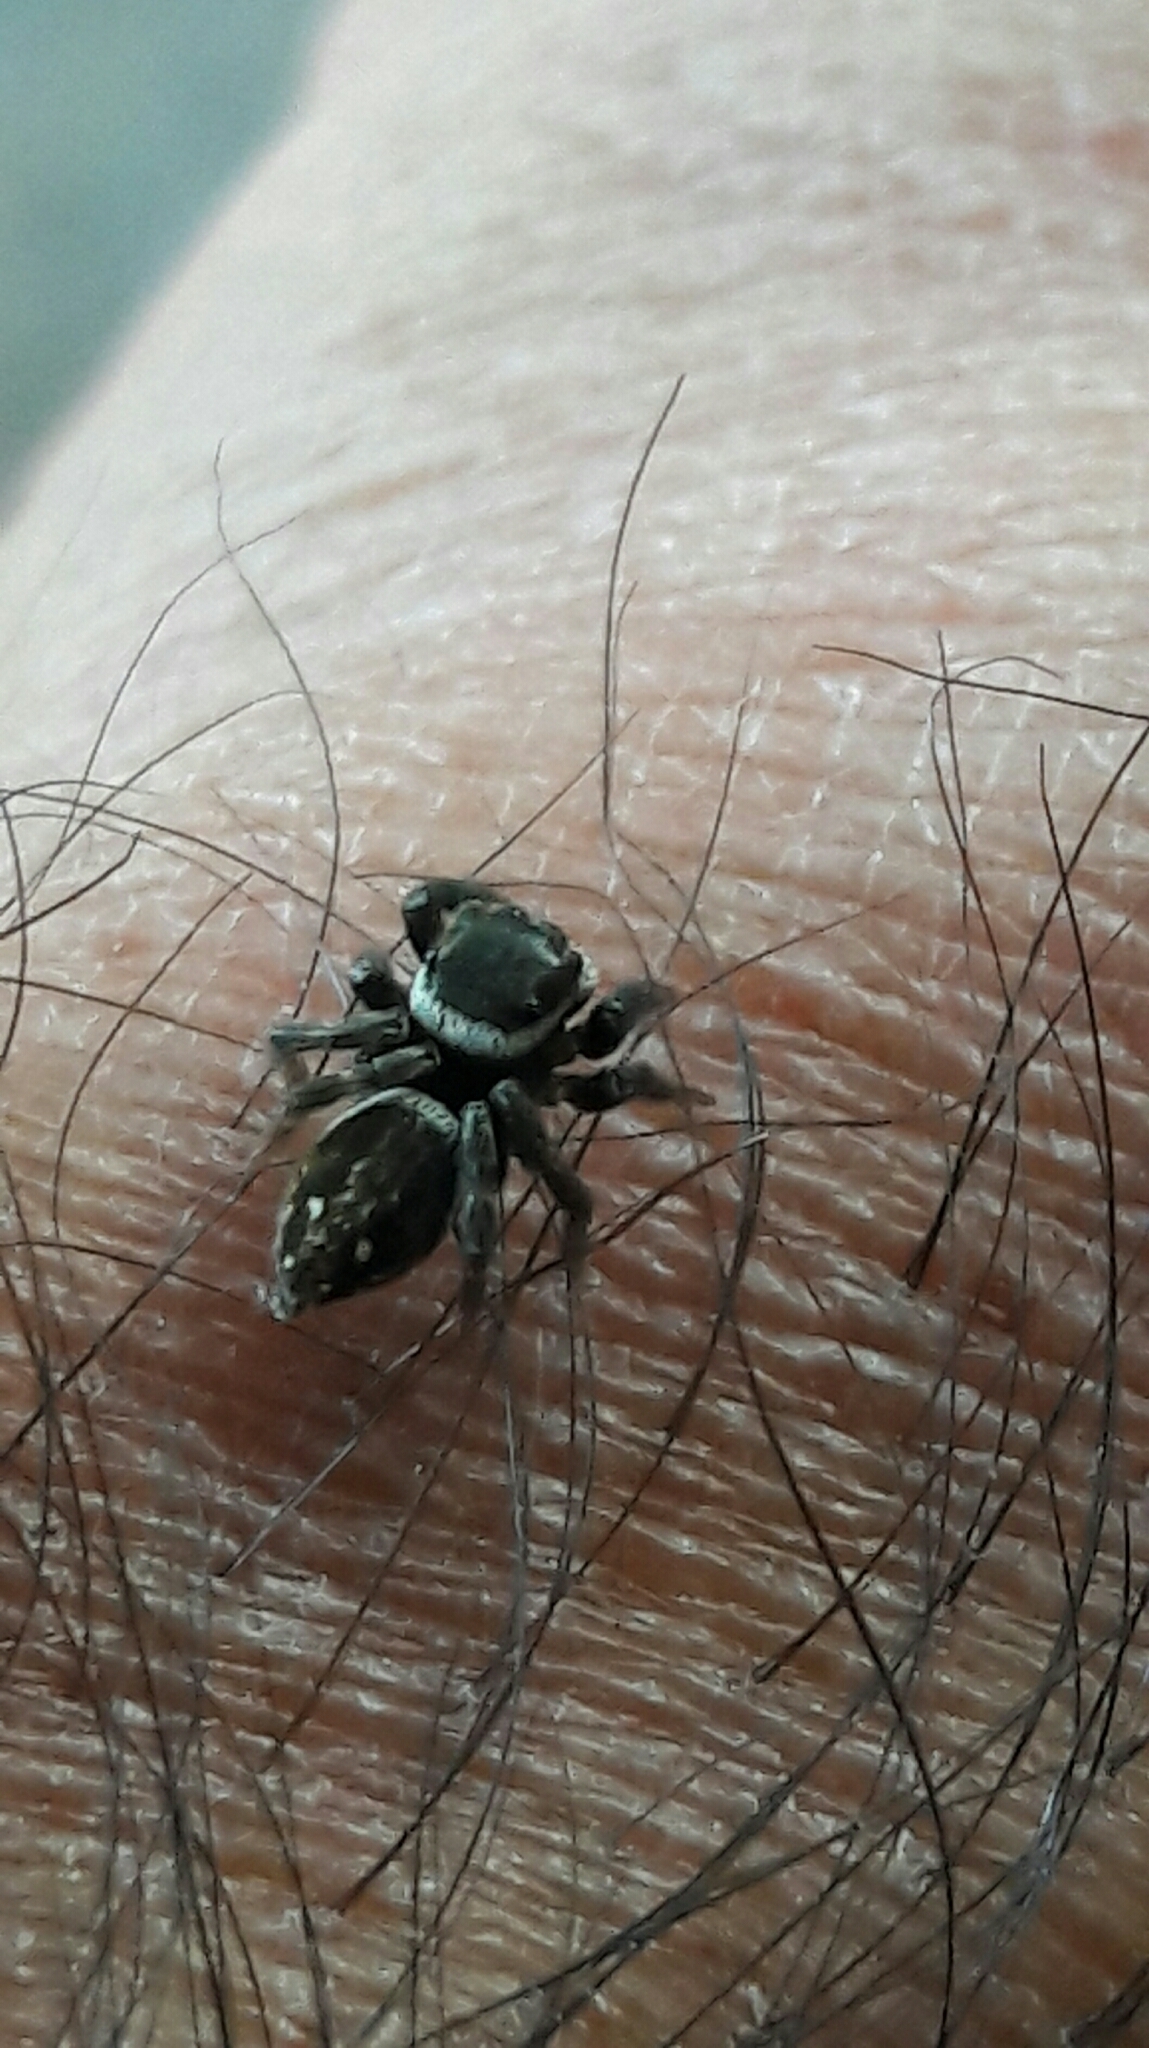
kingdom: Animalia
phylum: Arthropoda
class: Arachnida
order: Araneae
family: Salticidae
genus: Hasarius
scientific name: Hasarius adansoni
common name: Jumping spider
